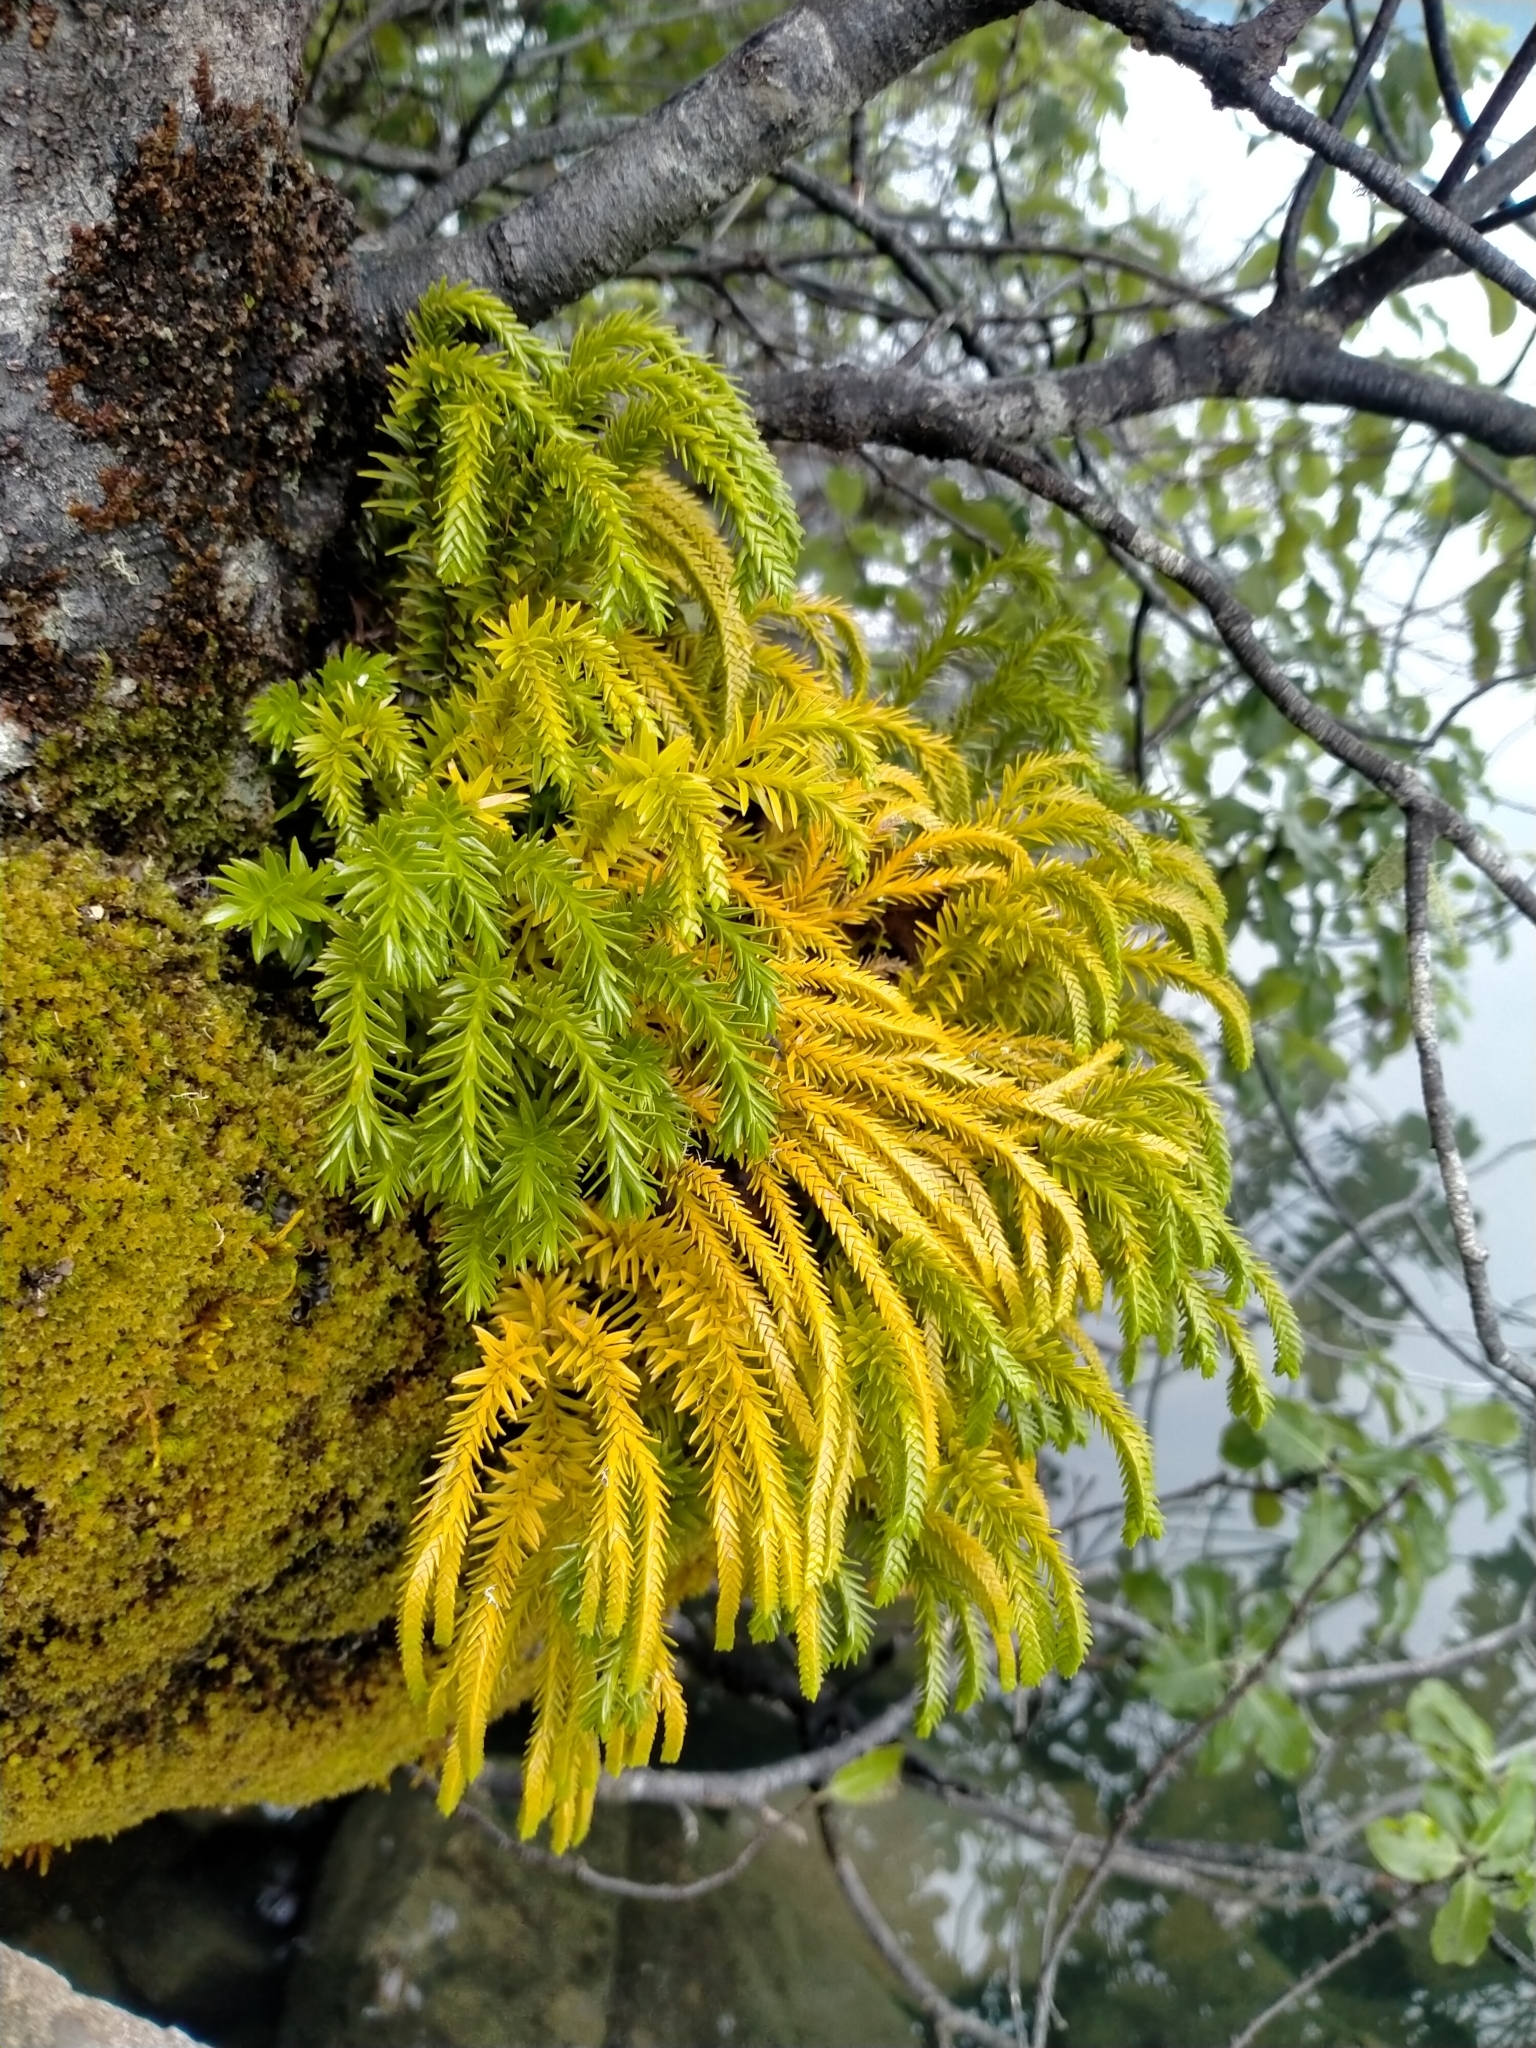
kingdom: Plantae
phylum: Tracheophyta
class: Lycopodiopsida
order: Lycopodiales
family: Lycopodiaceae
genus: Phlegmariurus
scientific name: Phlegmariurus varius
